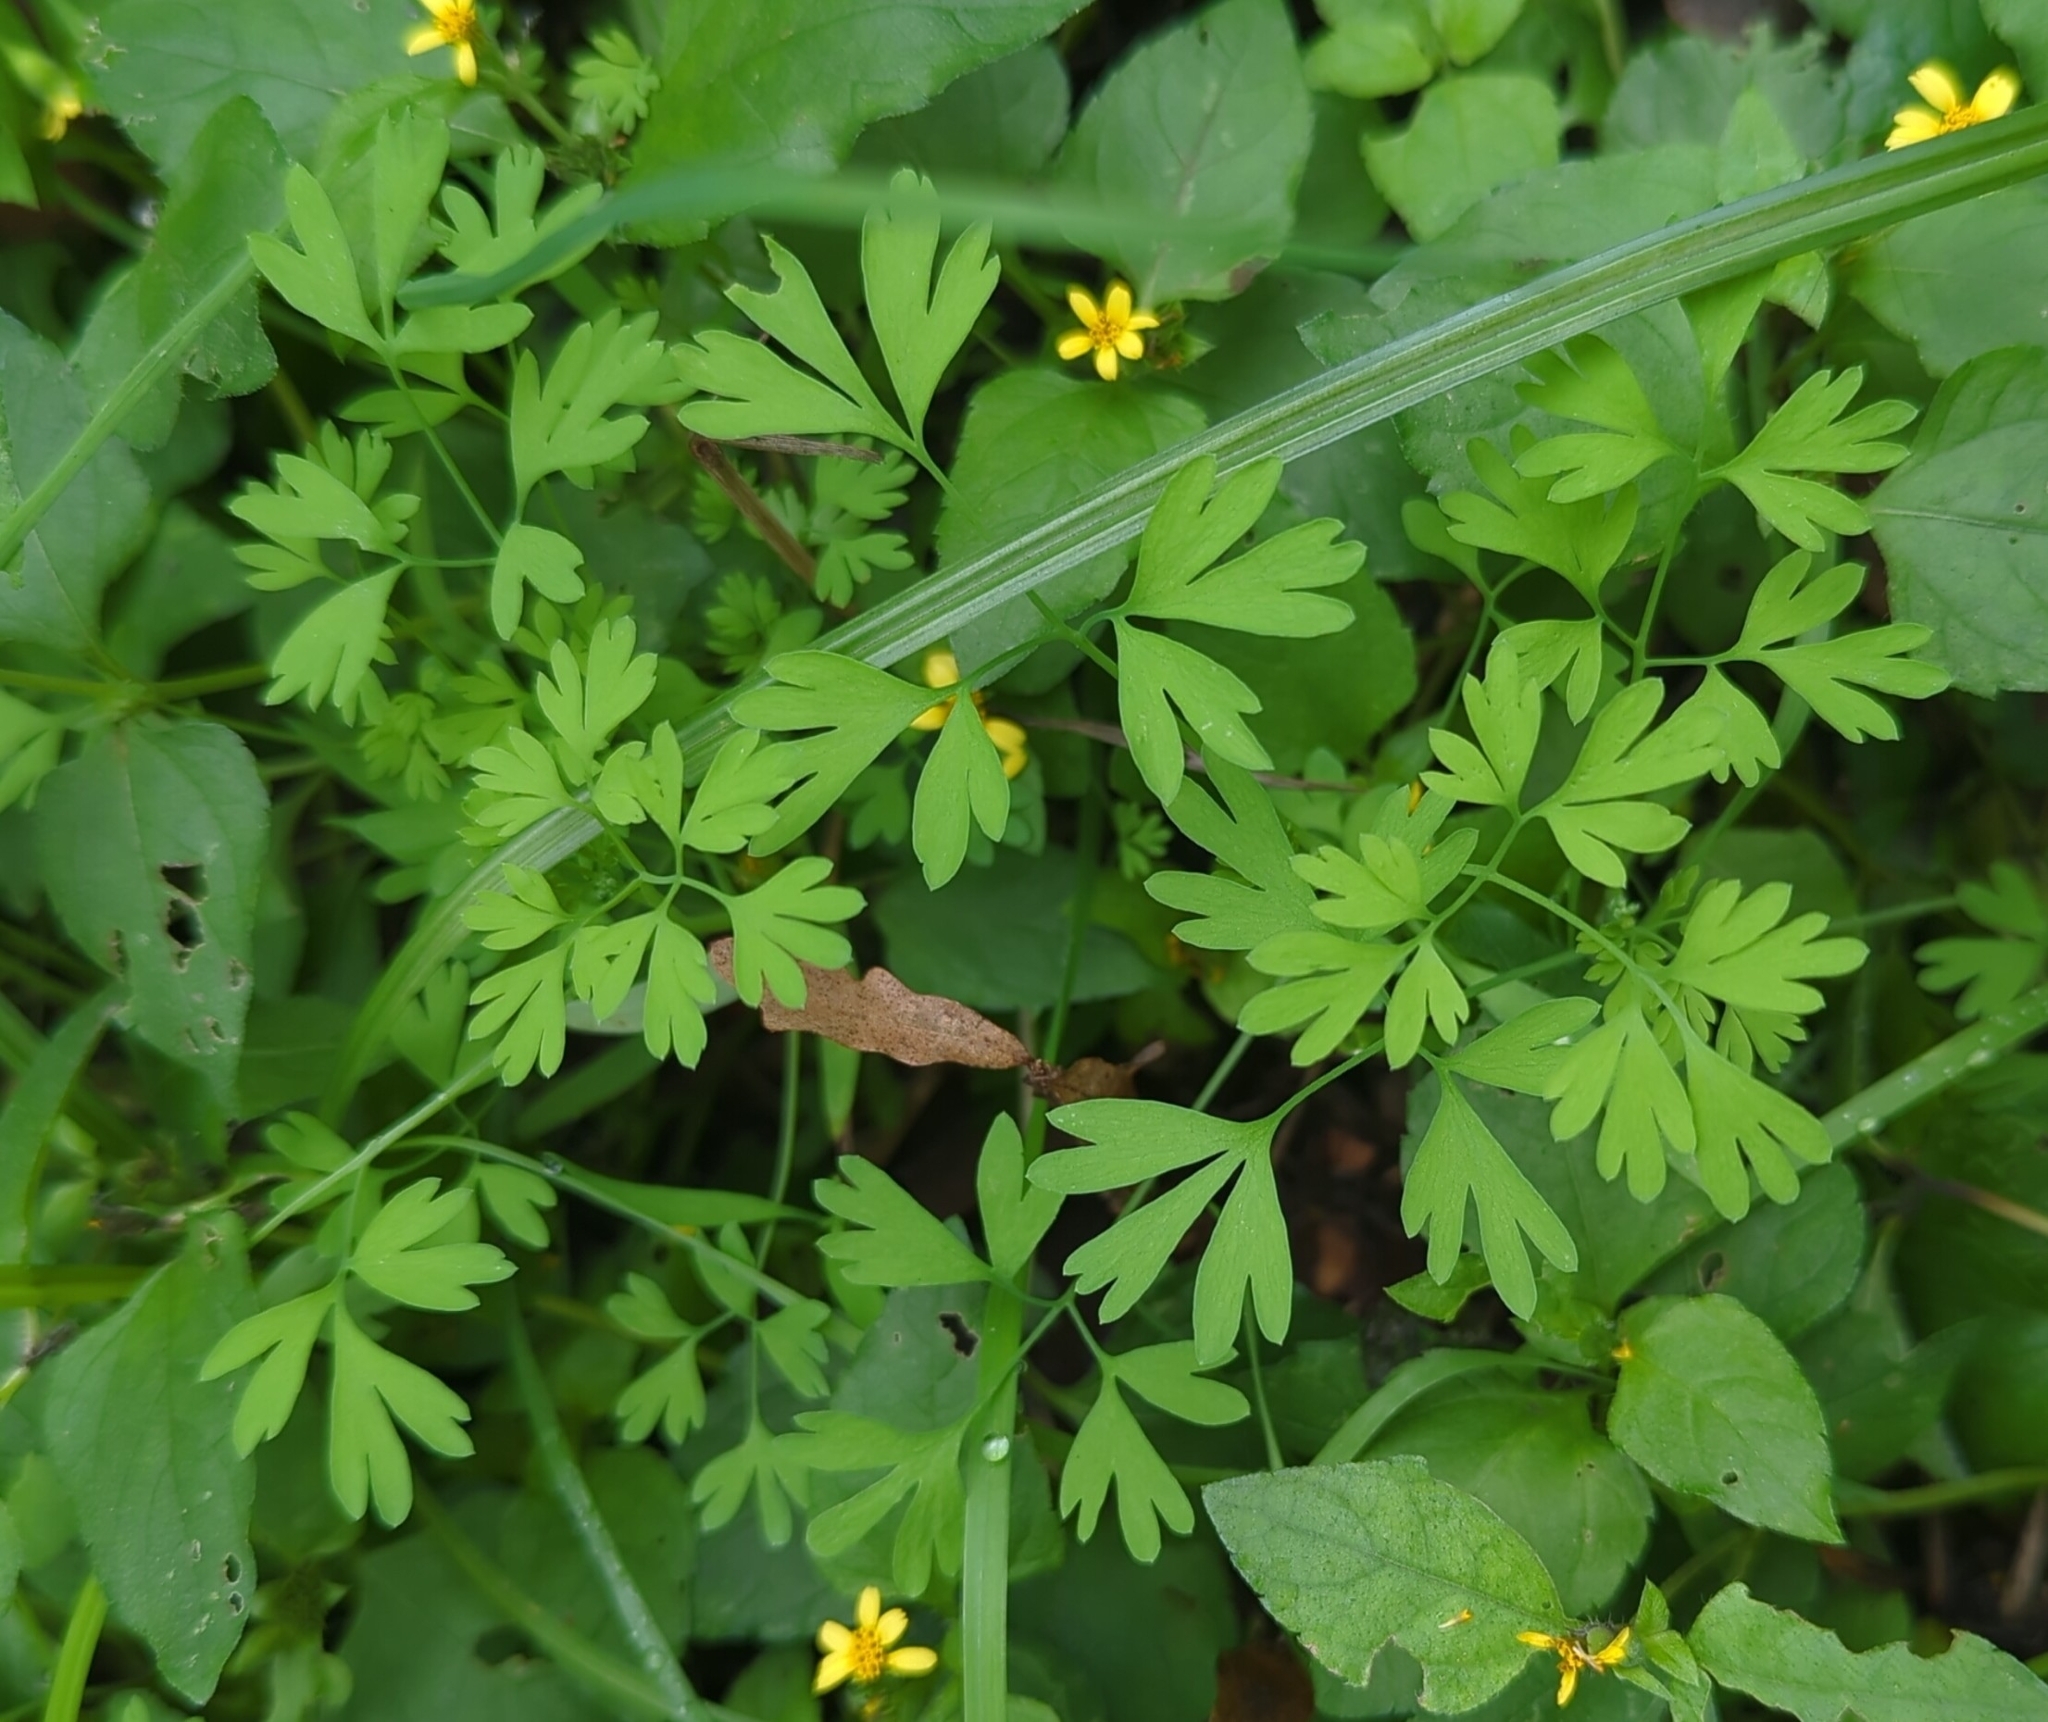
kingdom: Plantae
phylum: Tracheophyta
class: Magnoliopsida
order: Ranunculales
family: Papaveraceae
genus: Fumaria
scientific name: Fumaria
